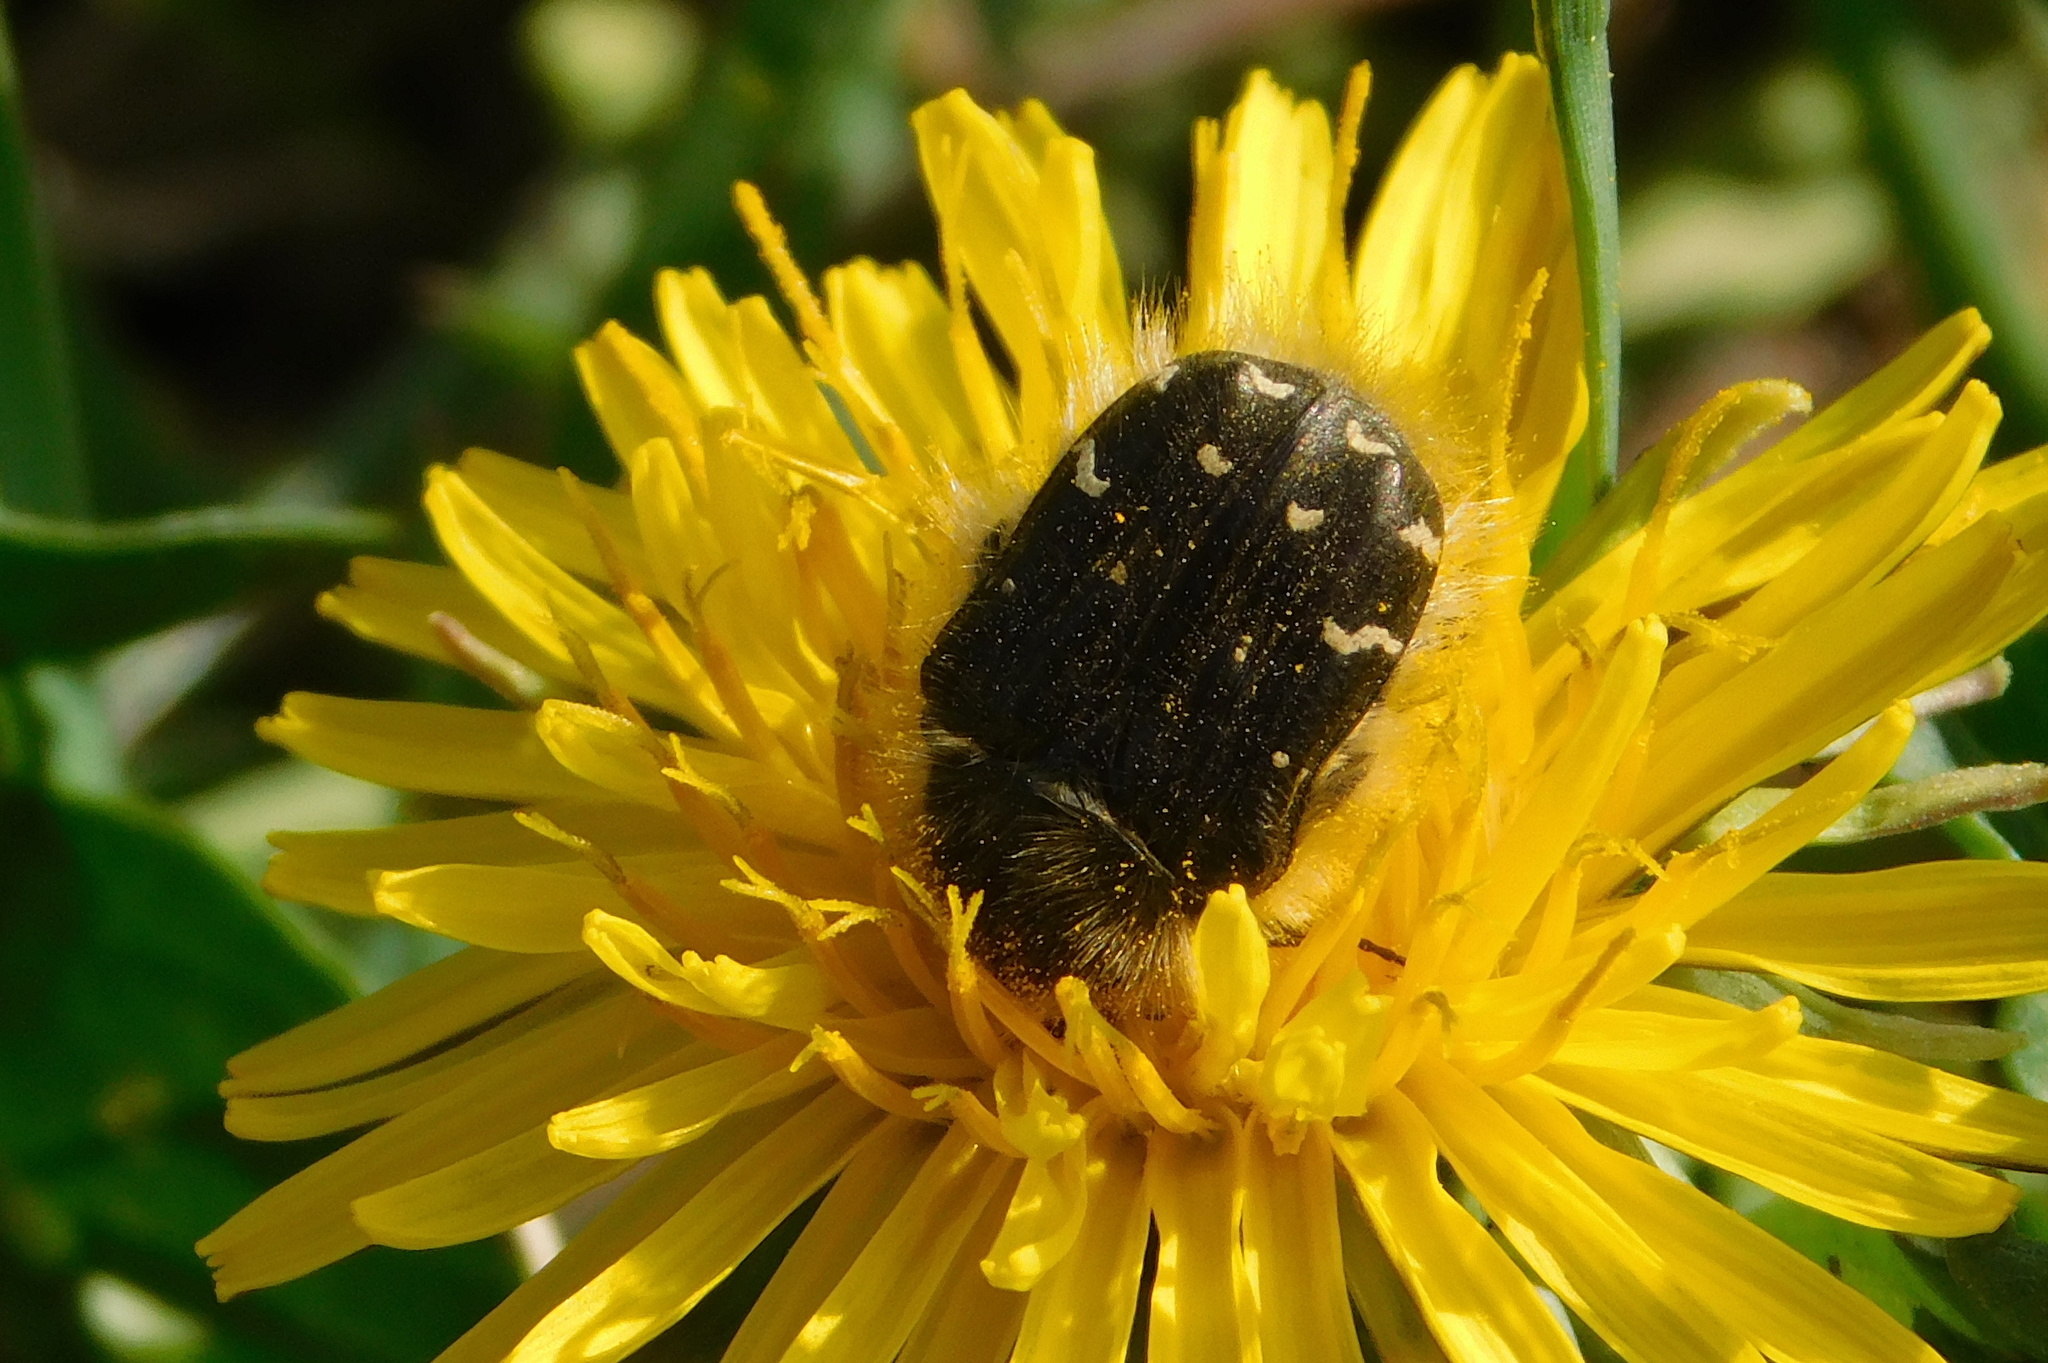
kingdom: Animalia
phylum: Arthropoda
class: Insecta
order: Coleoptera
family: Scarabaeidae
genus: Tropinota
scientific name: Tropinota hirta
